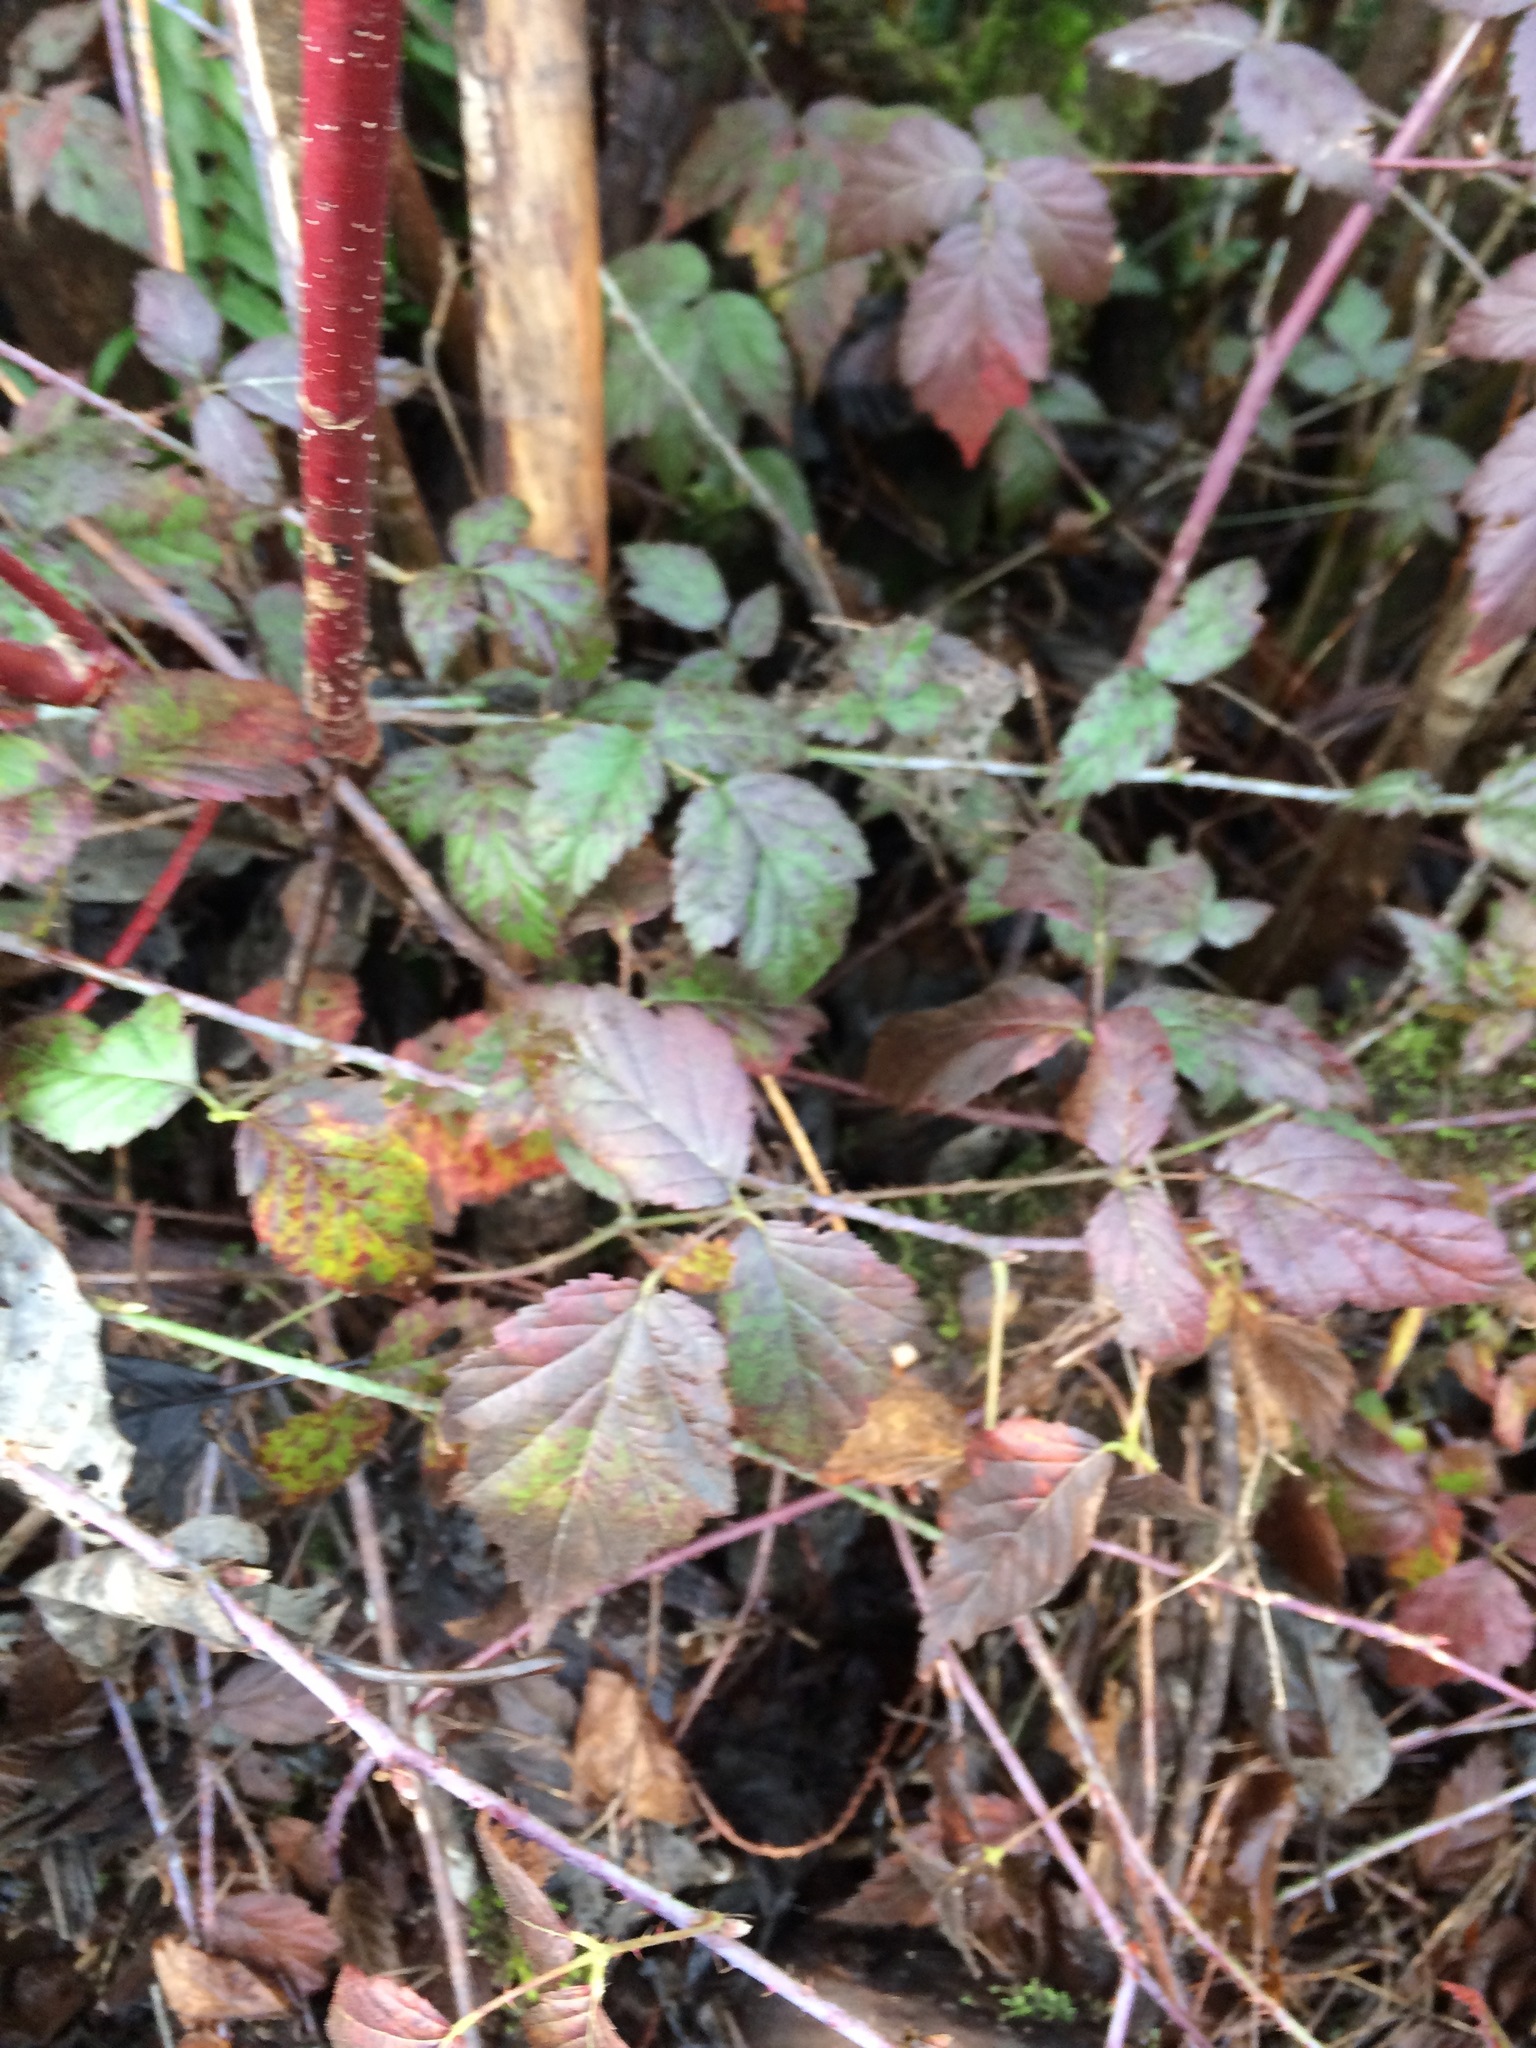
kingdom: Plantae
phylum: Tracheophyta
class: Magnoliopsida
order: Rosales
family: Rosaceae
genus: Rubus
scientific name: Rubus ursinus
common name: Pacific blackberry
